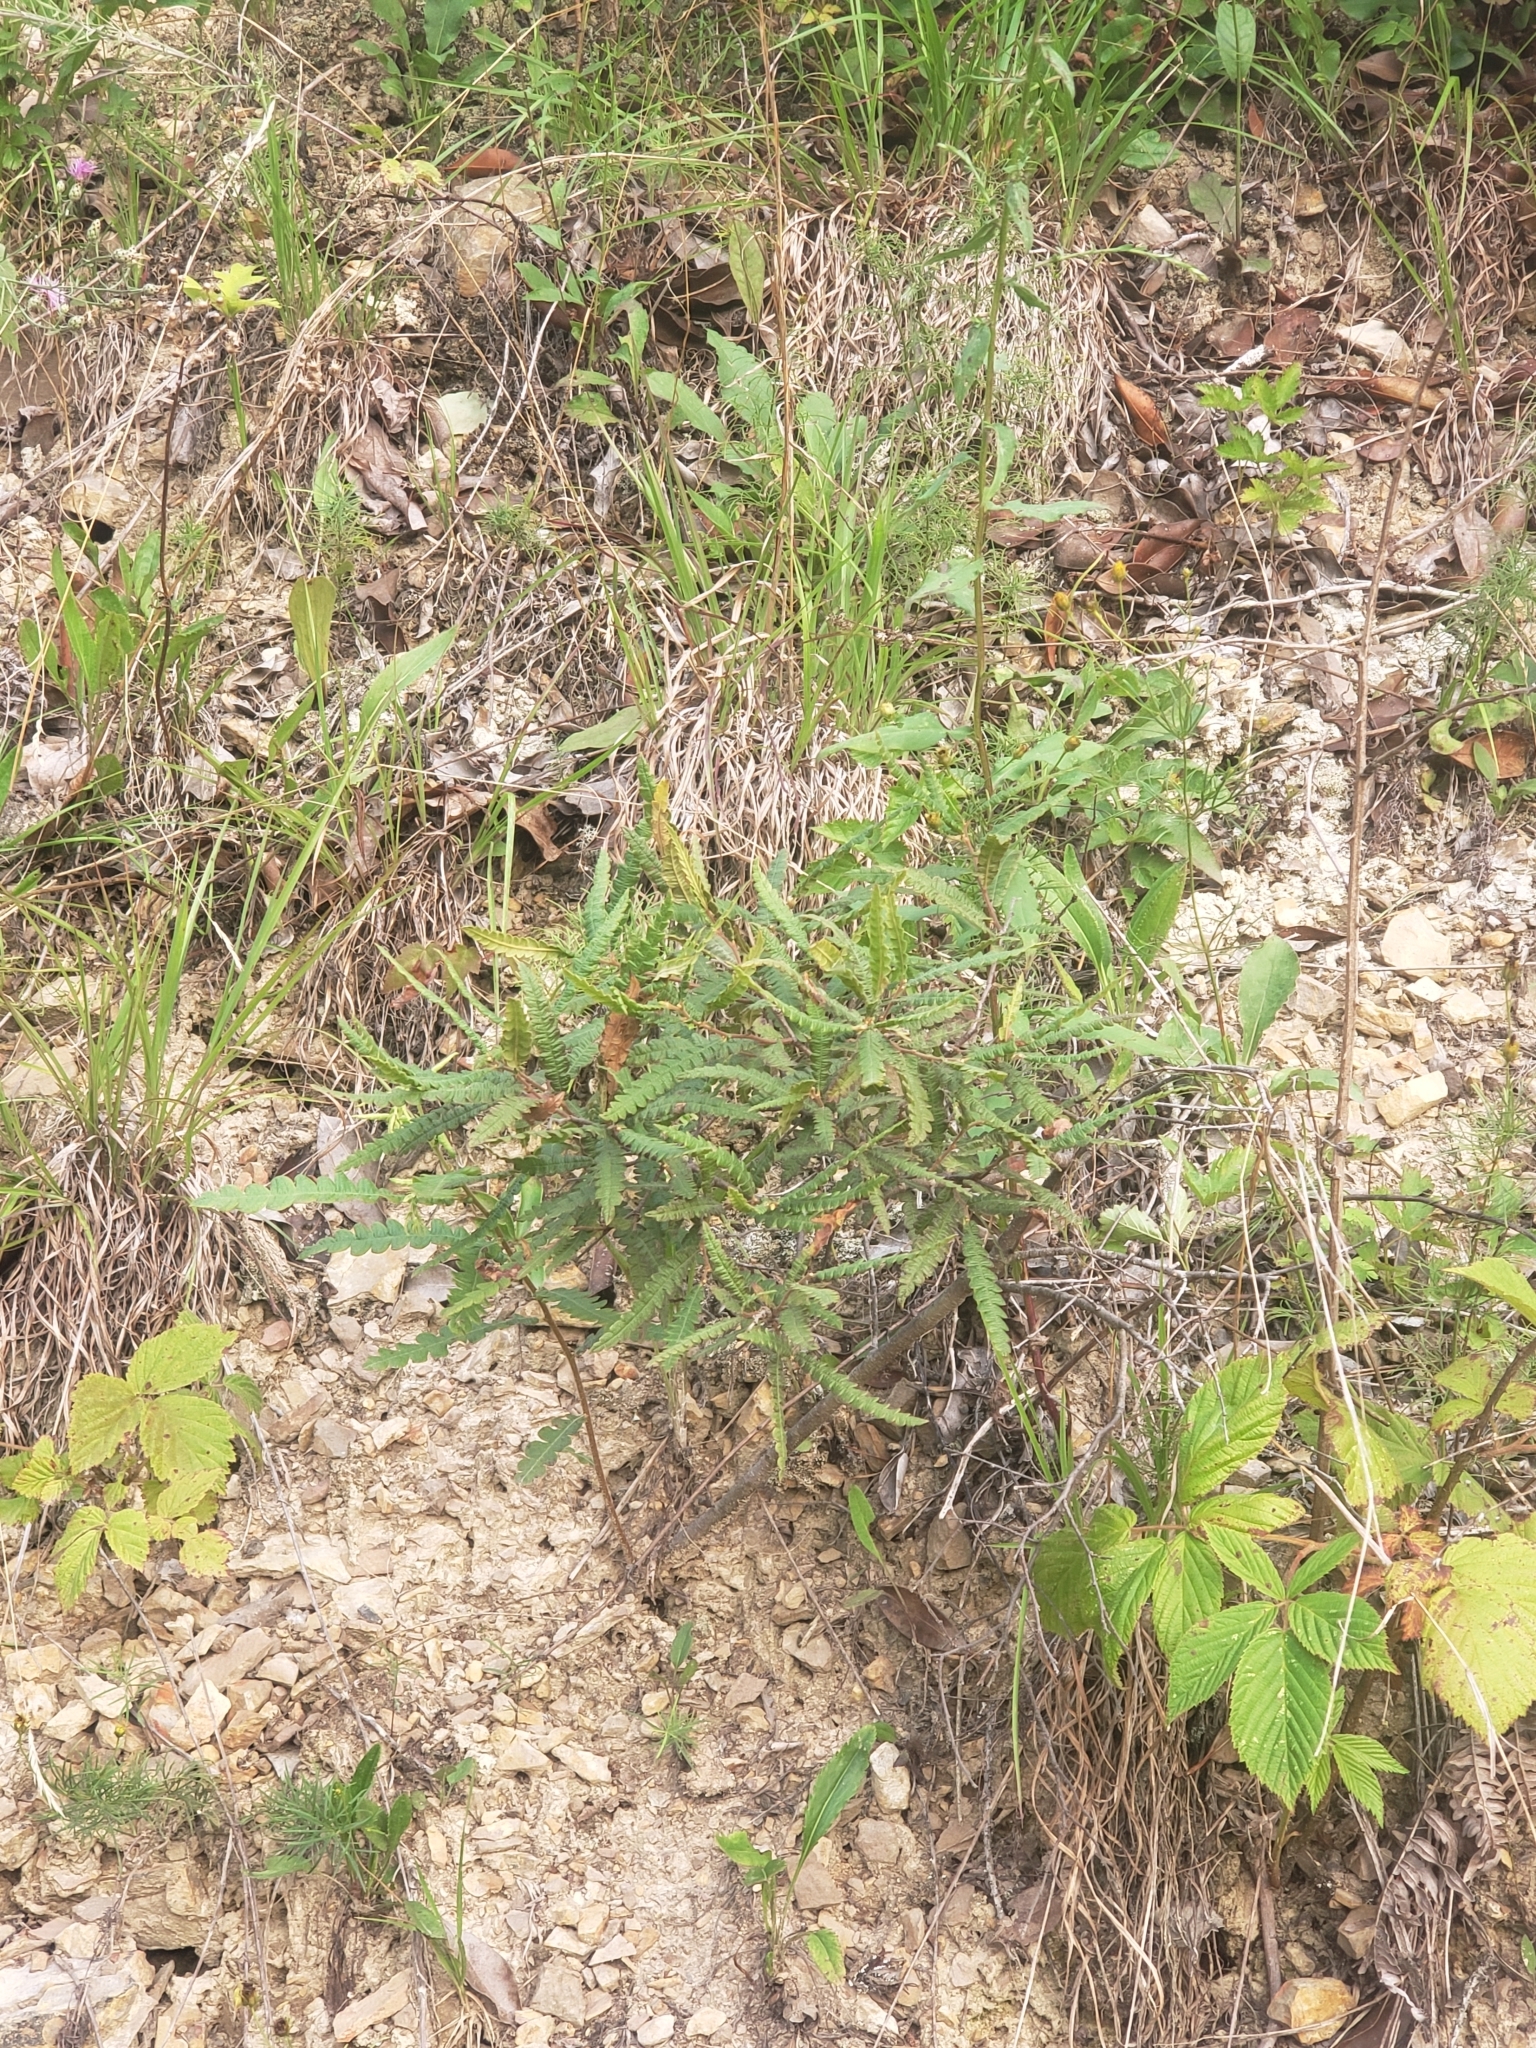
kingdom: Plantae
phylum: Tracheophyta
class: Magnoliopsida
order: Fagales
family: Myricaceae
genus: Comptonia
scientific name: Comptonia peregrina
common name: Sweet-fern
